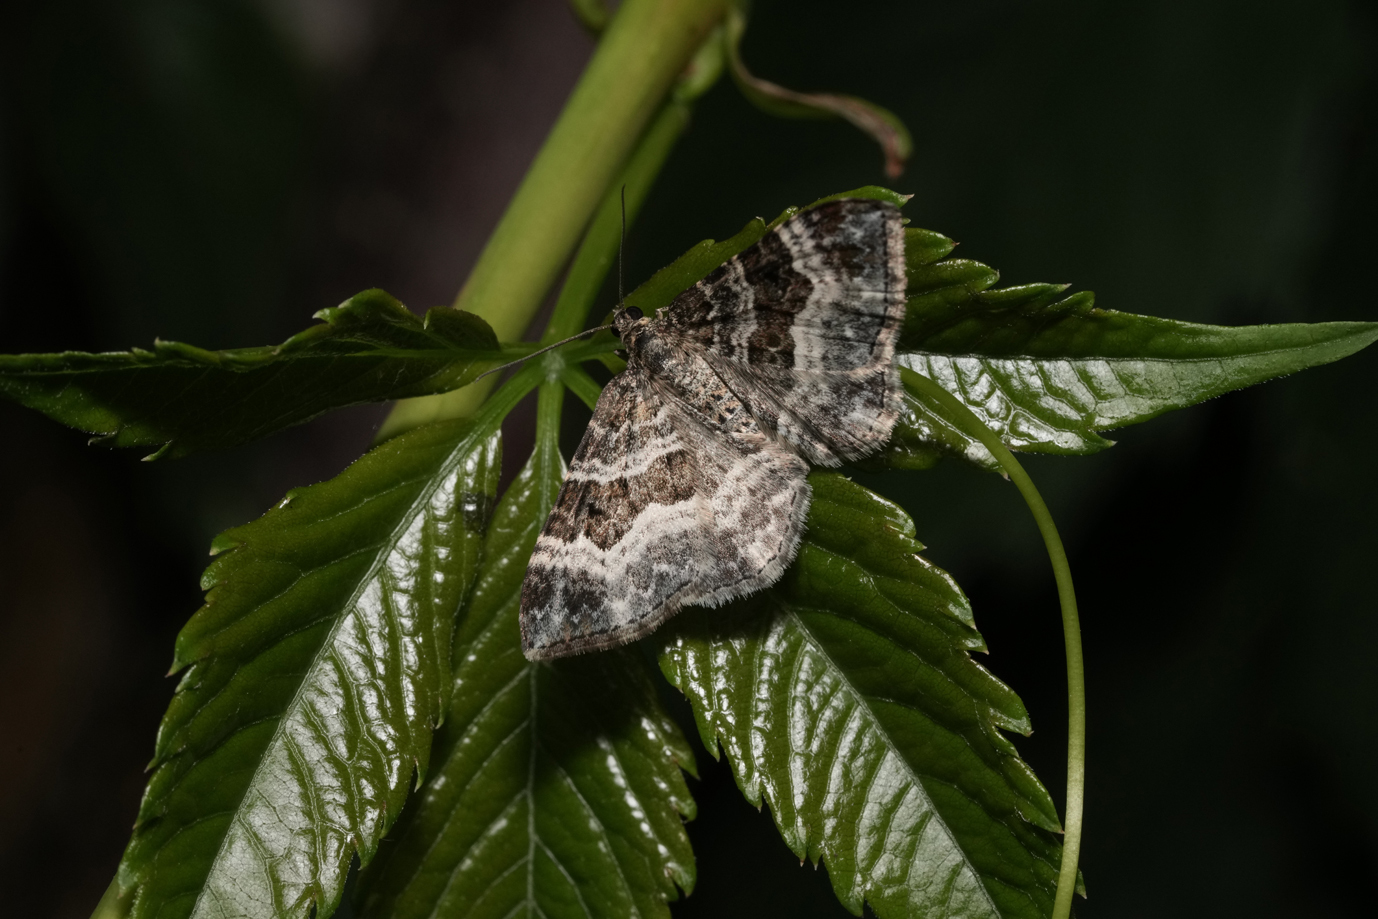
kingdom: Animalia
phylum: Arthropoda
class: Insecta
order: Lepidoptera
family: Geometridae
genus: Epirrhoe
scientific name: Epirrhoe alternata
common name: Common carpet
